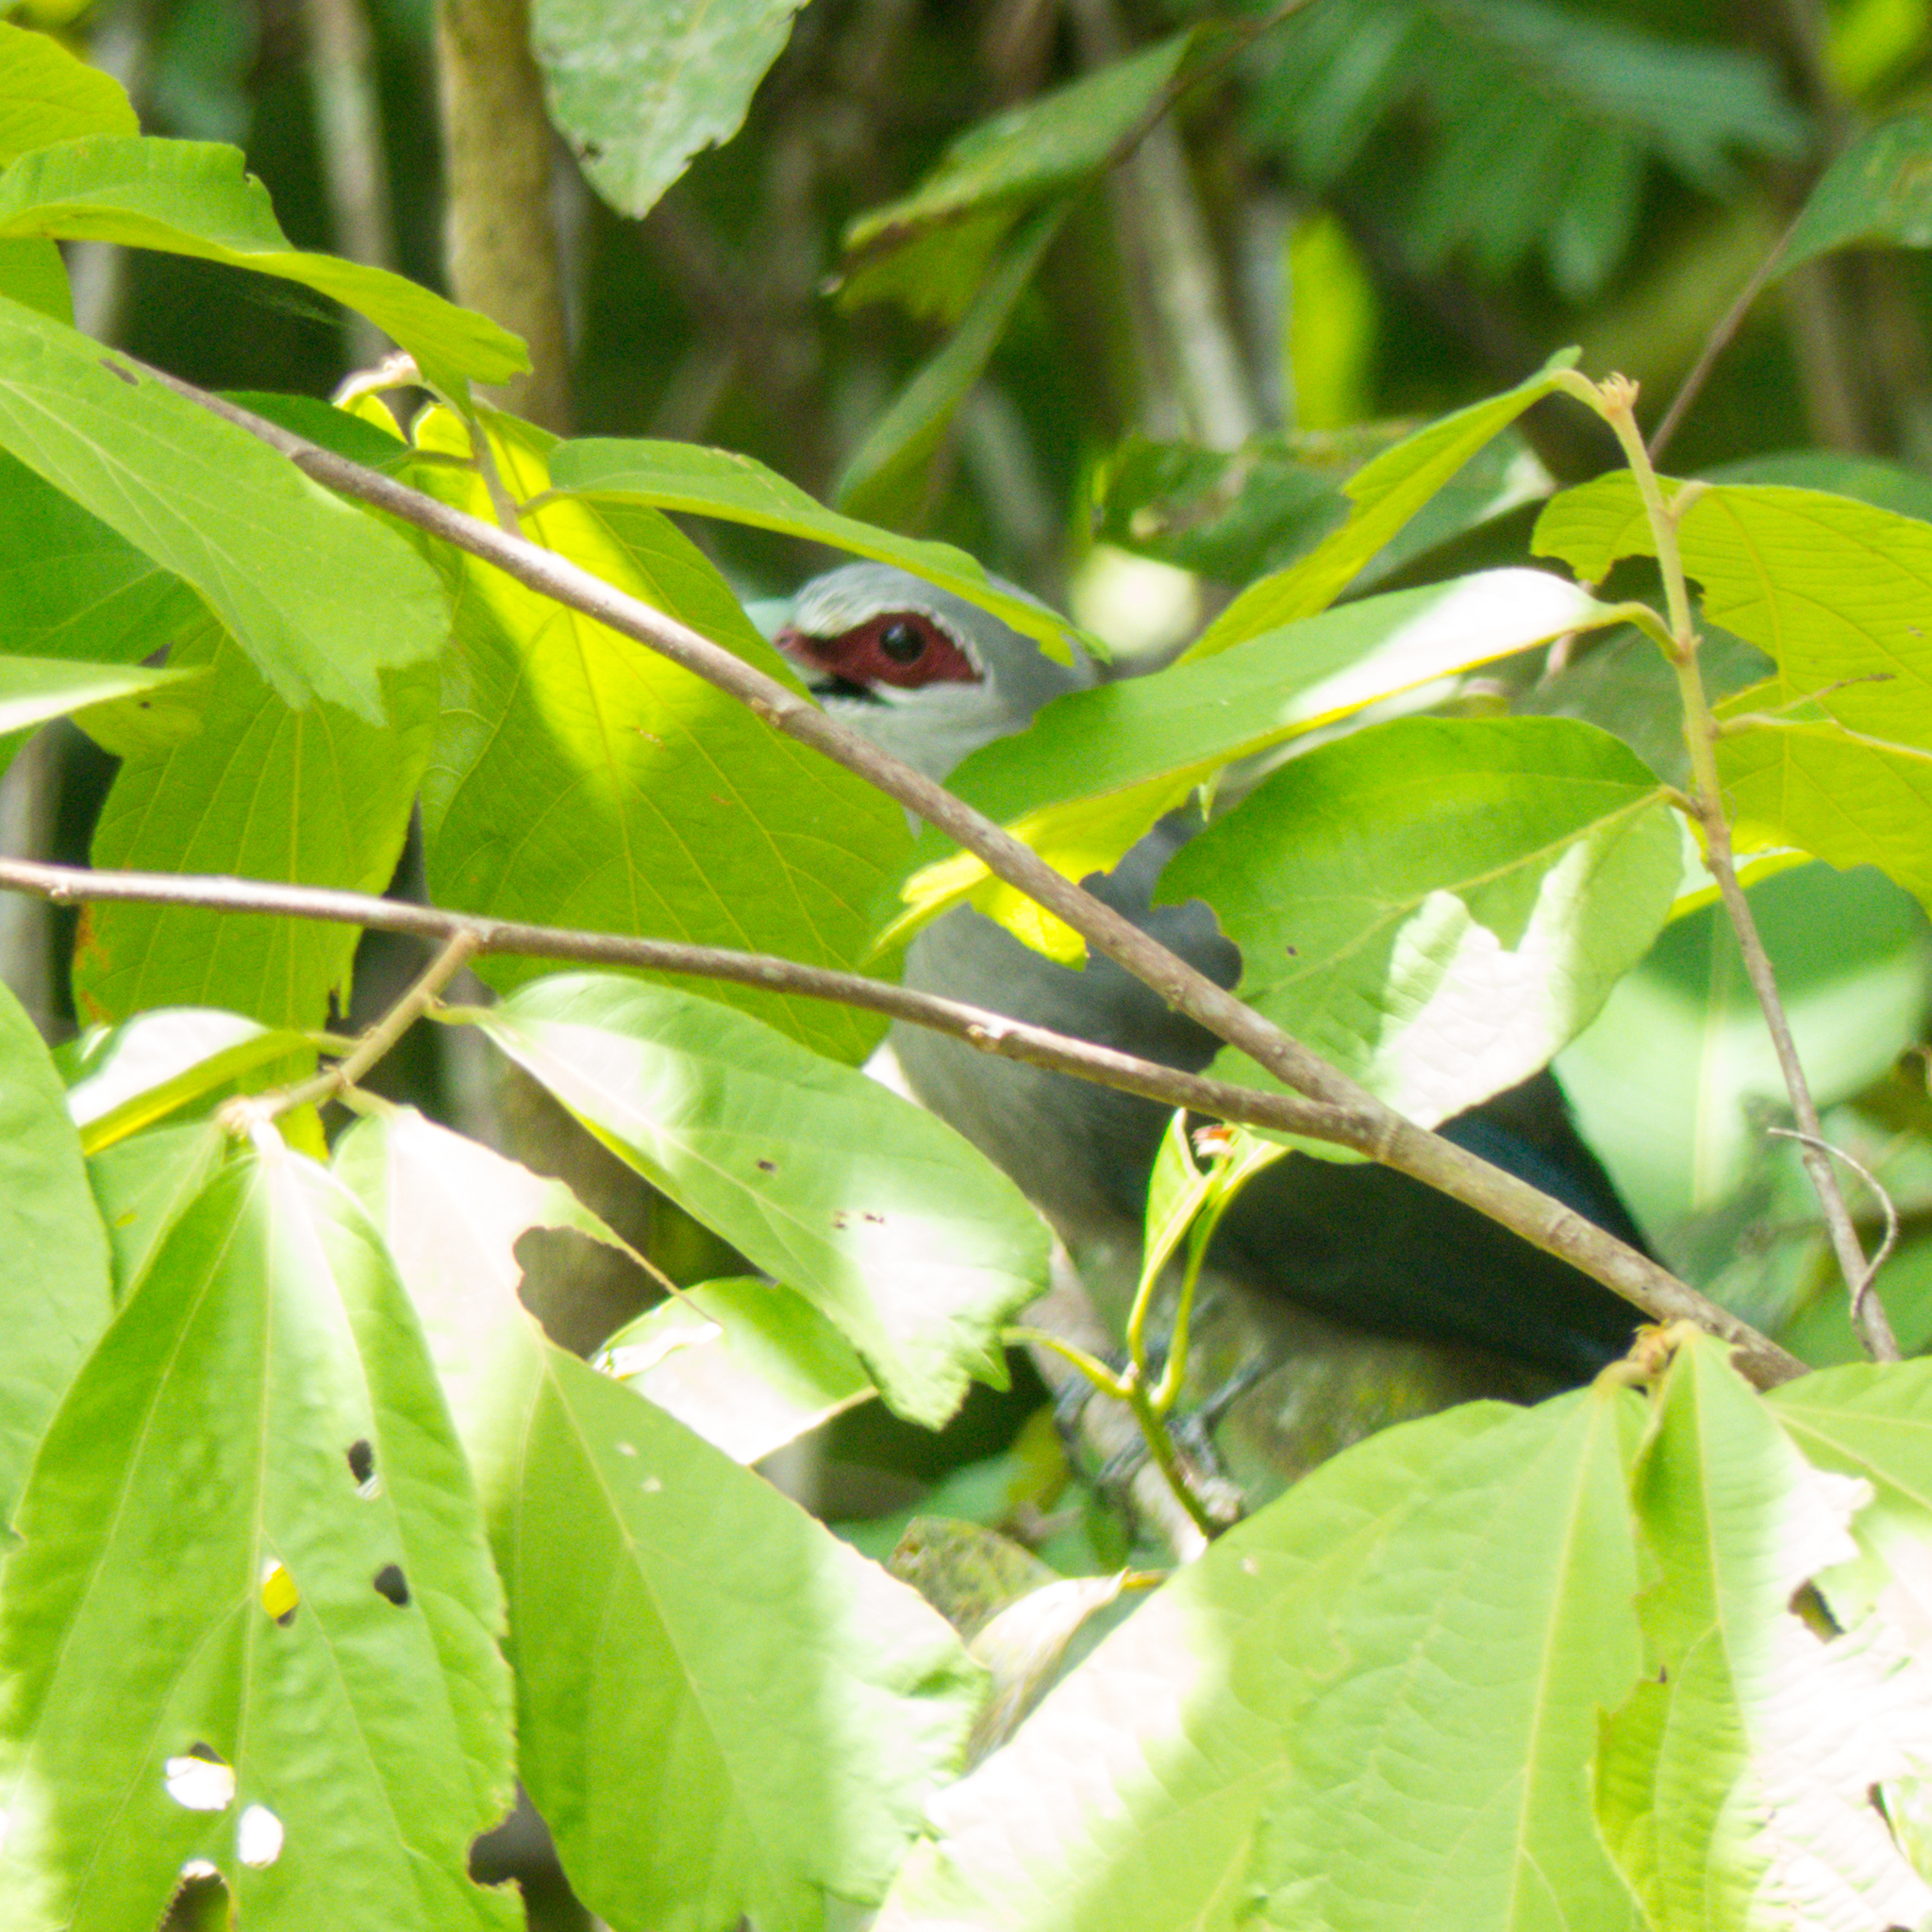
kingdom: Animalia
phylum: Chordata
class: Aves
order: Cuculiformes
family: Cuculidae
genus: Rhopodytes
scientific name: Rhopodytes tristis
